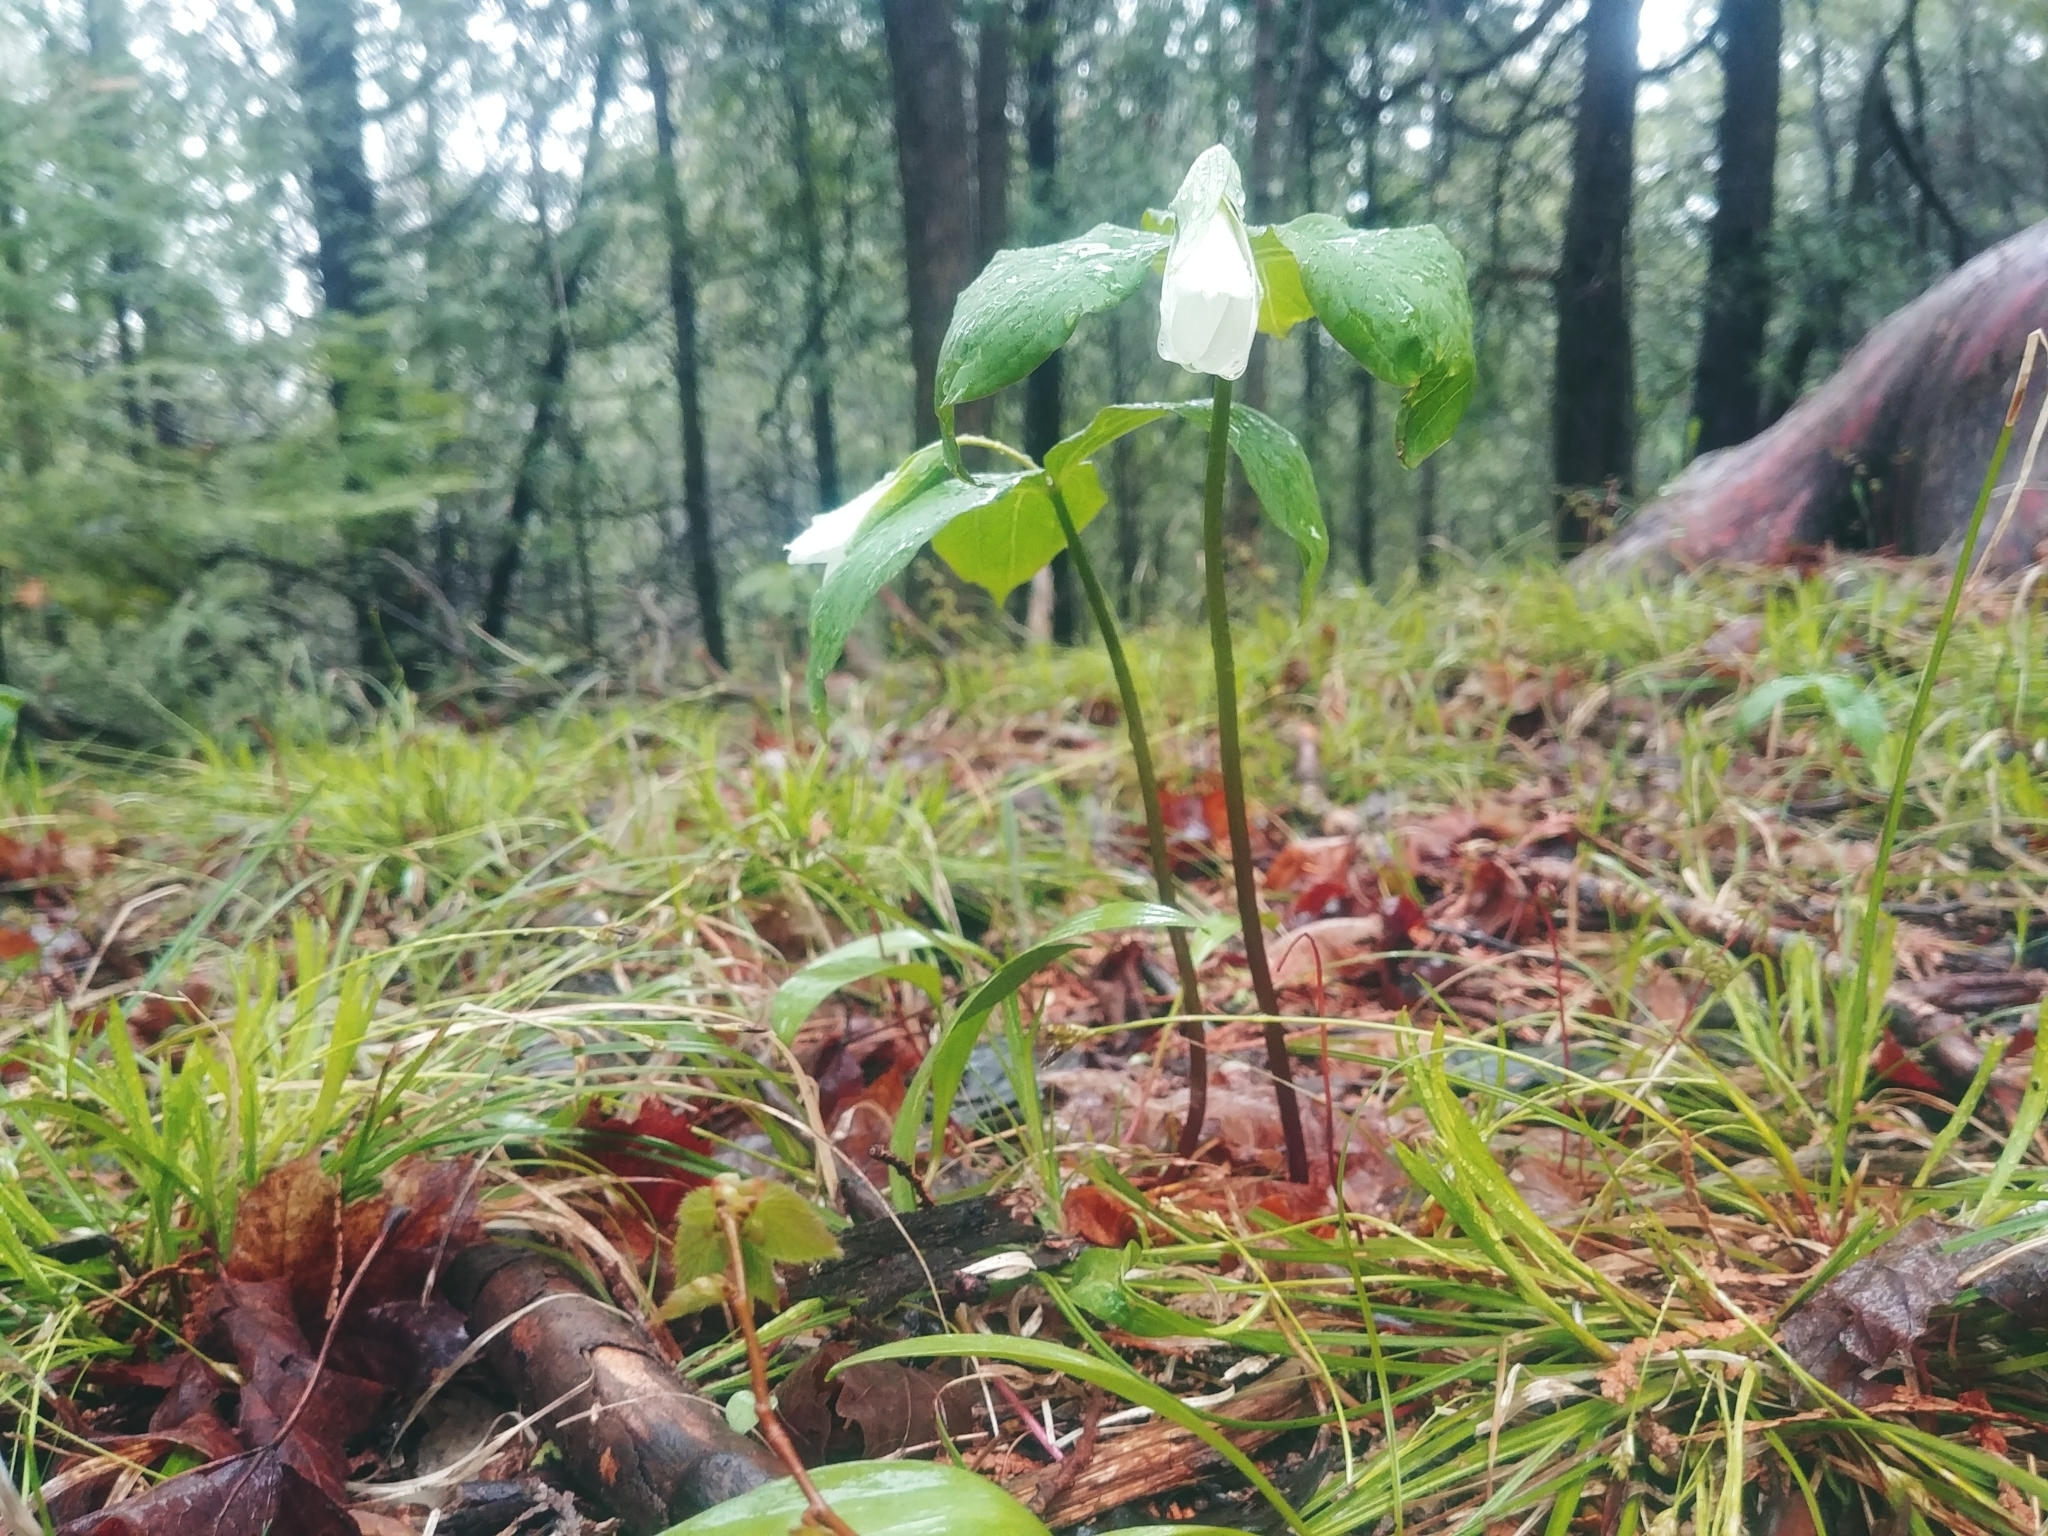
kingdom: Plantae
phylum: Tracheophyta
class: Liliopsida
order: Liliales
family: Melanthiaceae
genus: Trillium
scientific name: Trillium grandiflorum
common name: Great white trillium
